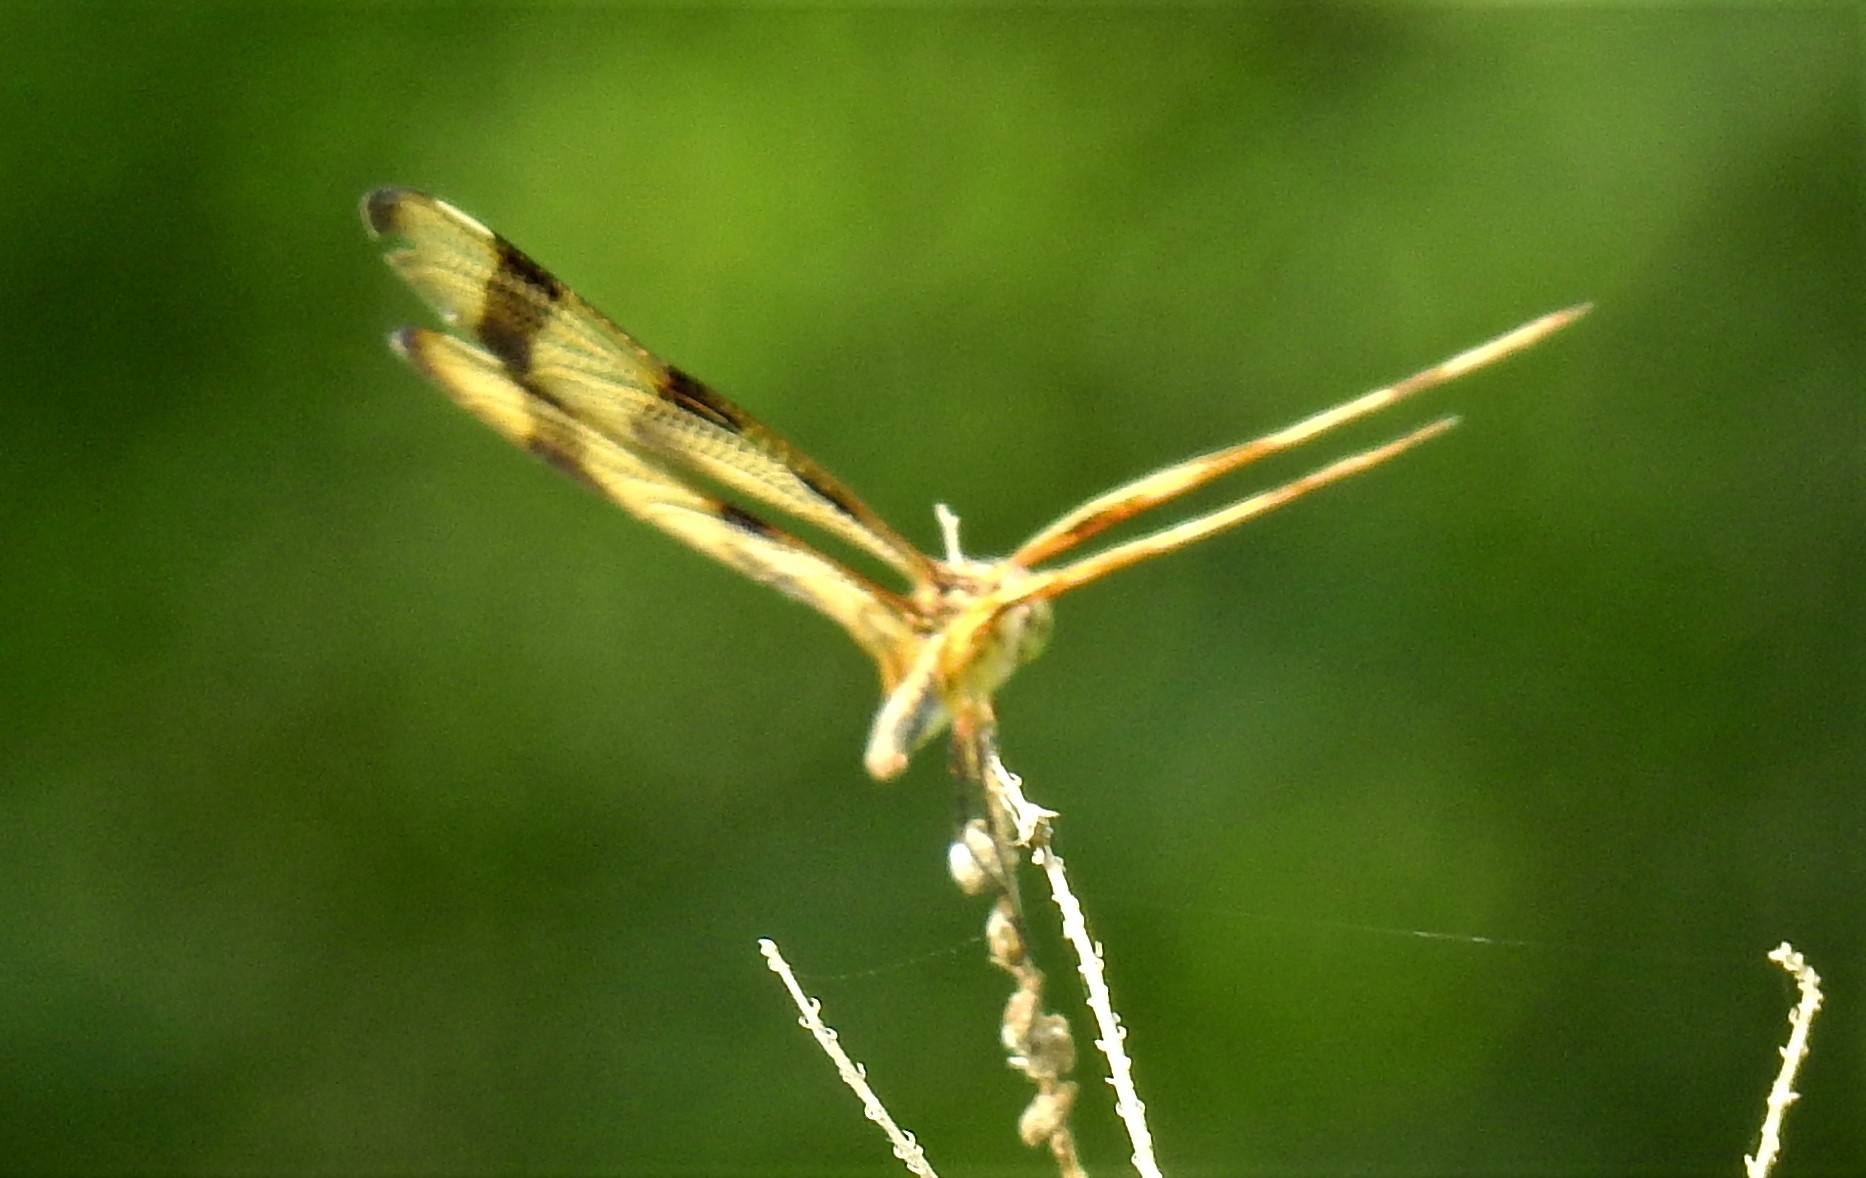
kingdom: Animalia
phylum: Arthropoda
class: Insecta
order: Odonata
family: Libellulidae
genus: Celithemis
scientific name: Celithemis eponina
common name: Halloween pennant
